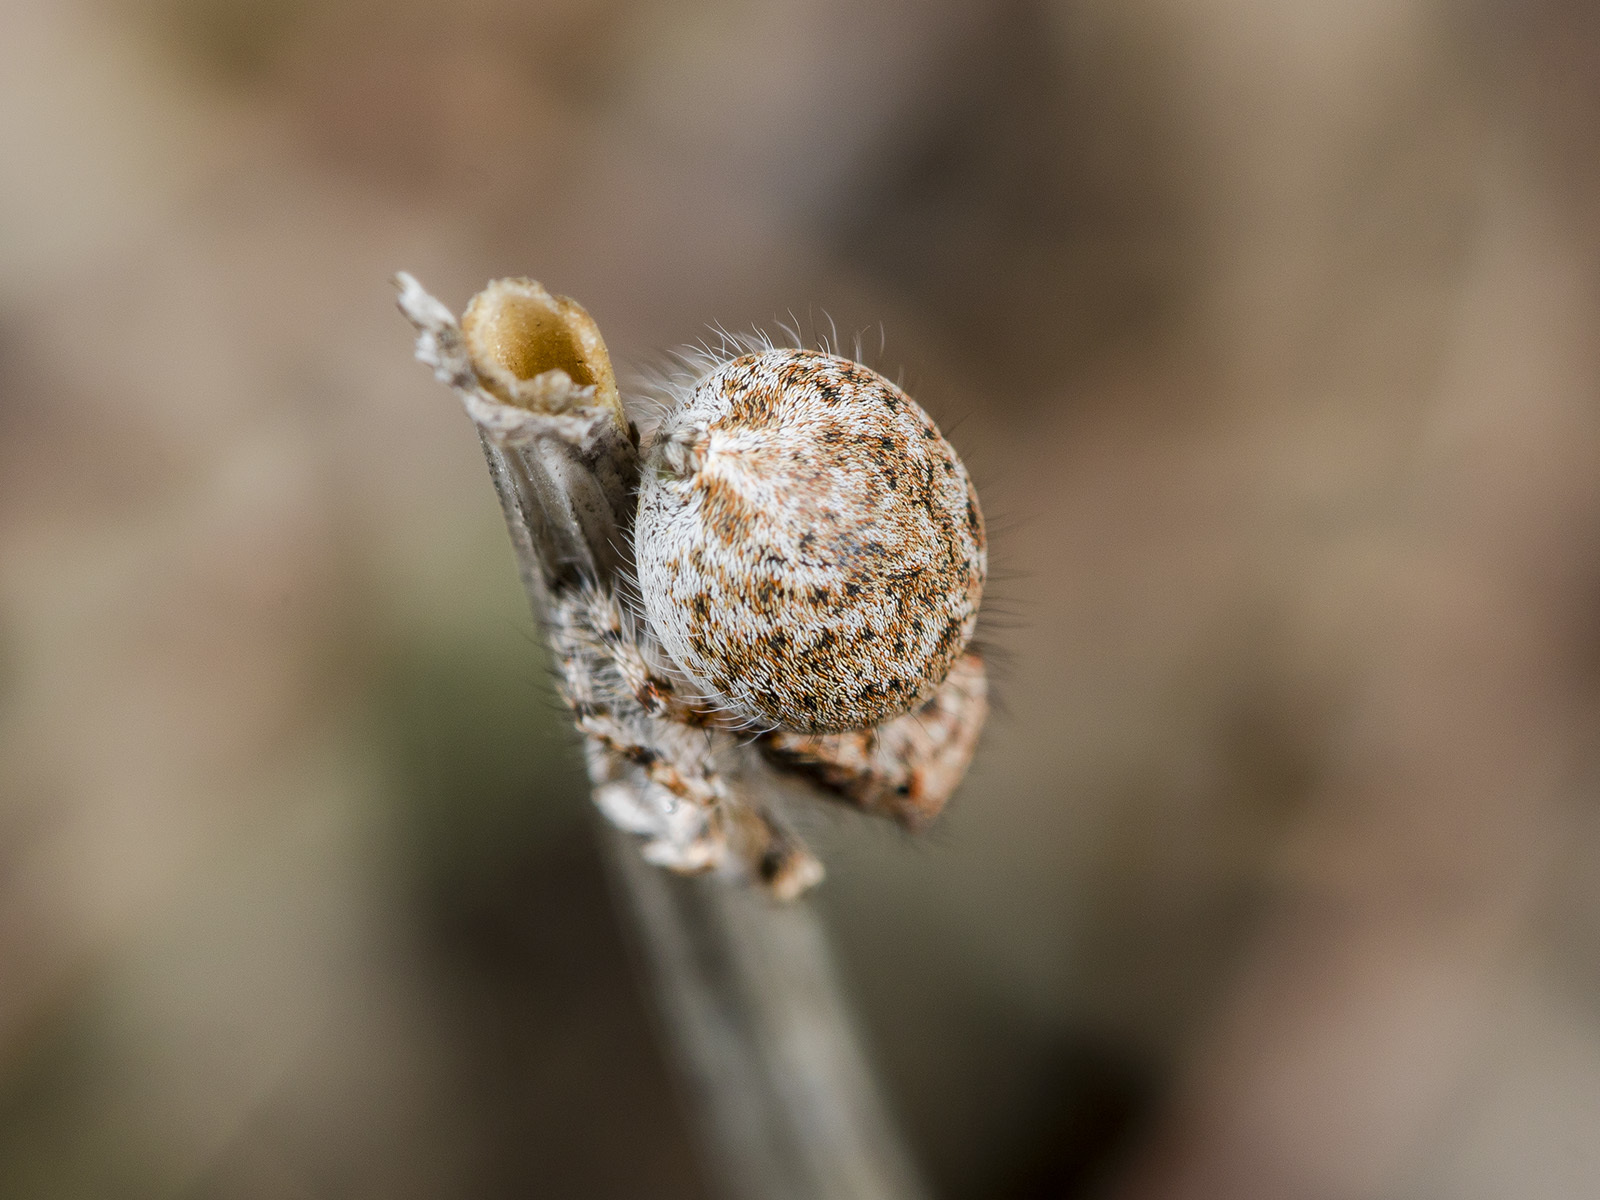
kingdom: Animalia
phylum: Arthropoda
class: Arachnida
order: Araneae
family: Salticidae
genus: Yllenus
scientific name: Yllenus uiguricus
